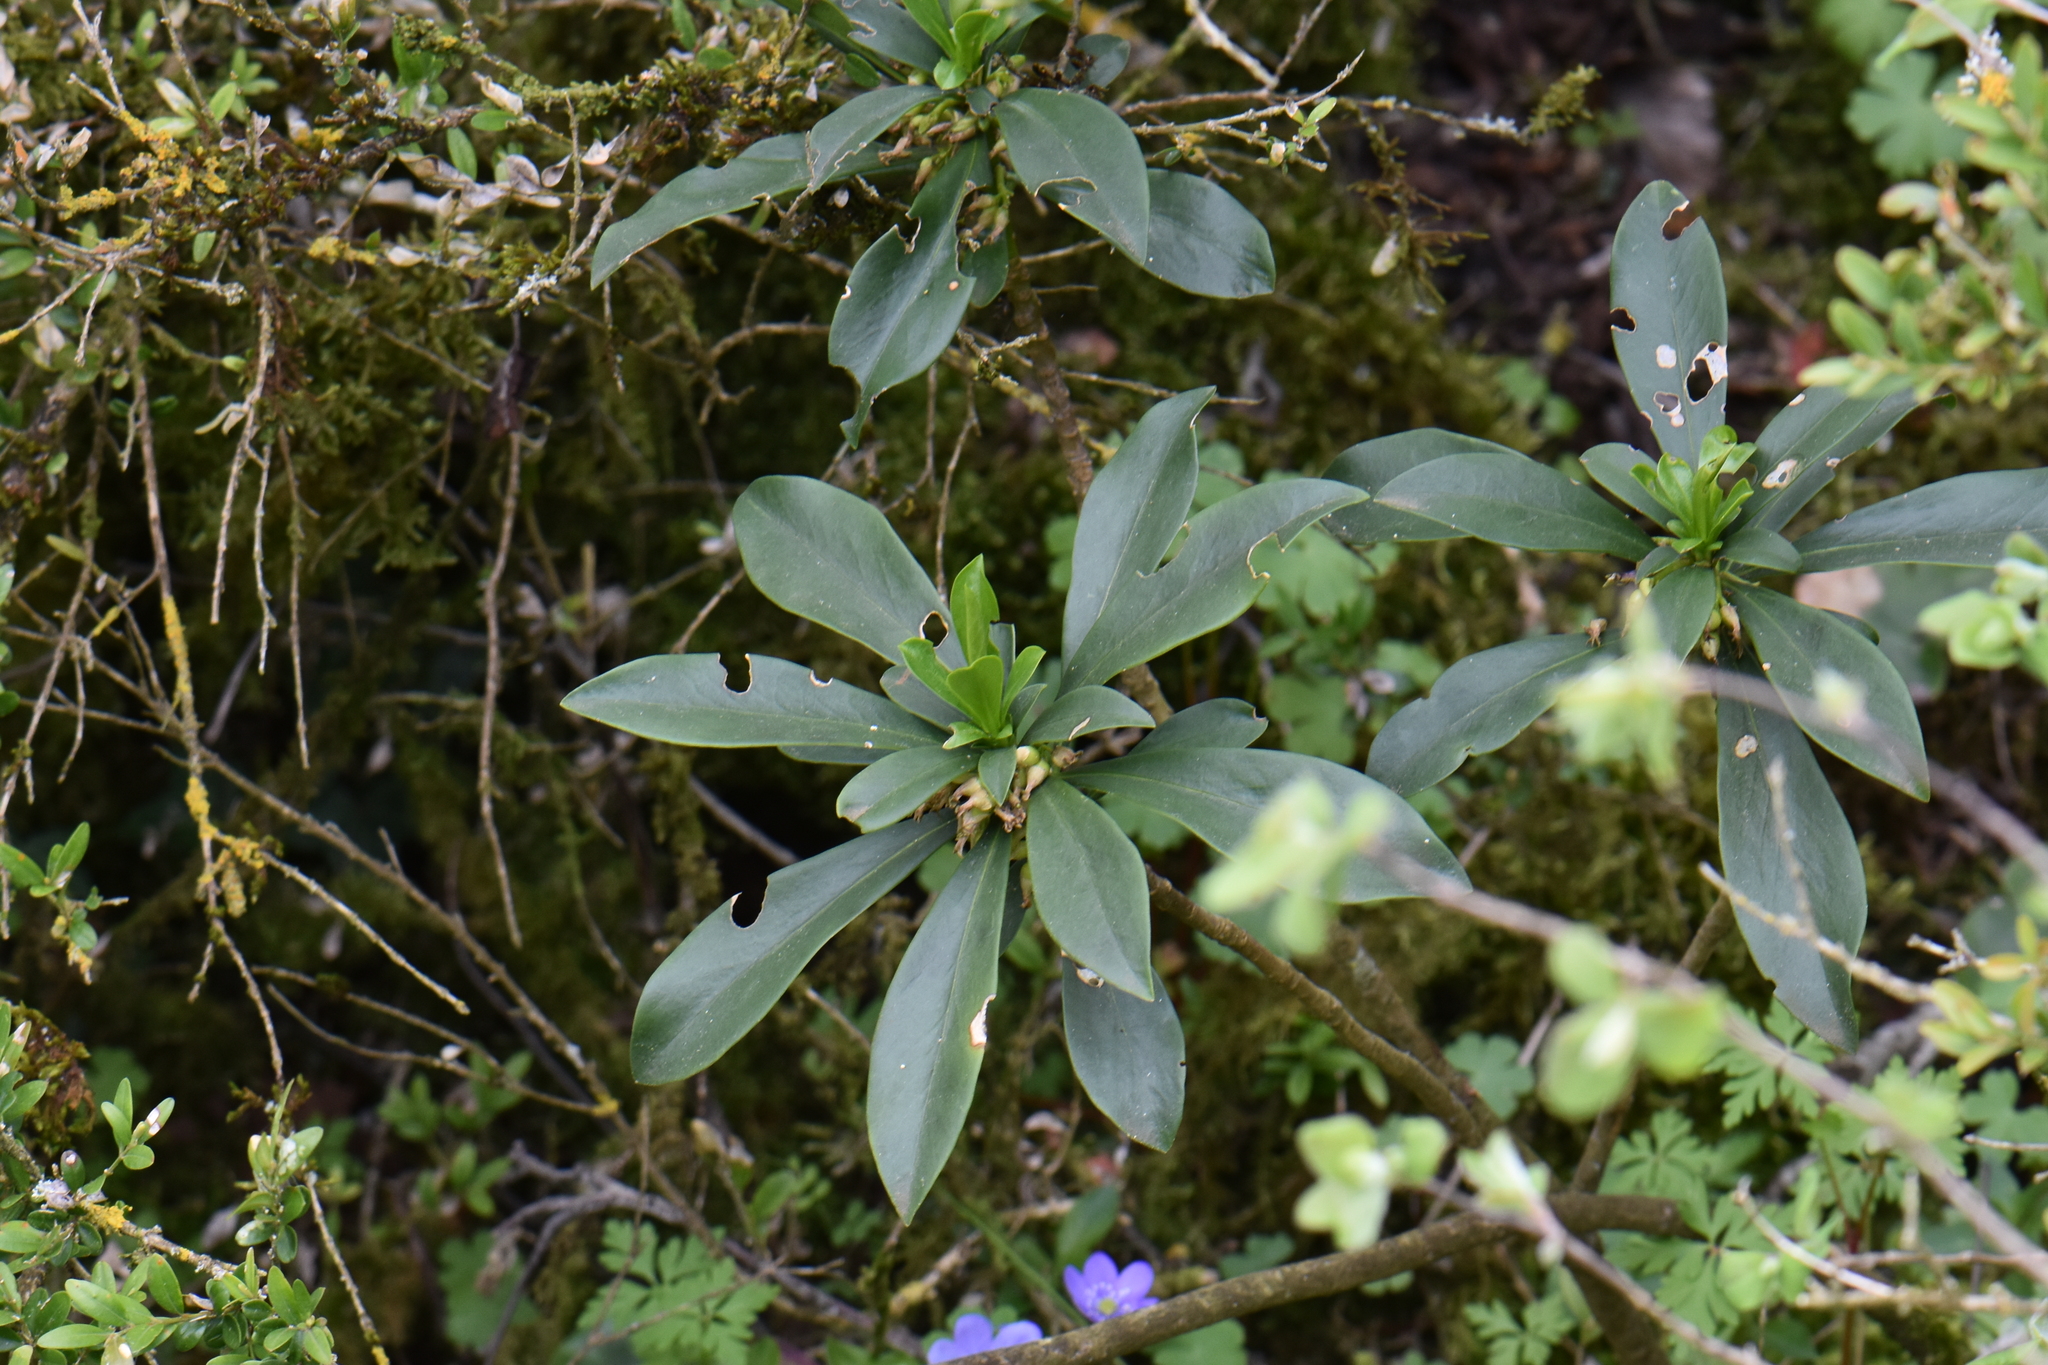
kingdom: Plantae
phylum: Tracheophyta
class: Magnoliopsida
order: Malvales
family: Thymelaeaceae
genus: Daphne
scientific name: Daphne laureola
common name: Spurge-laurel
